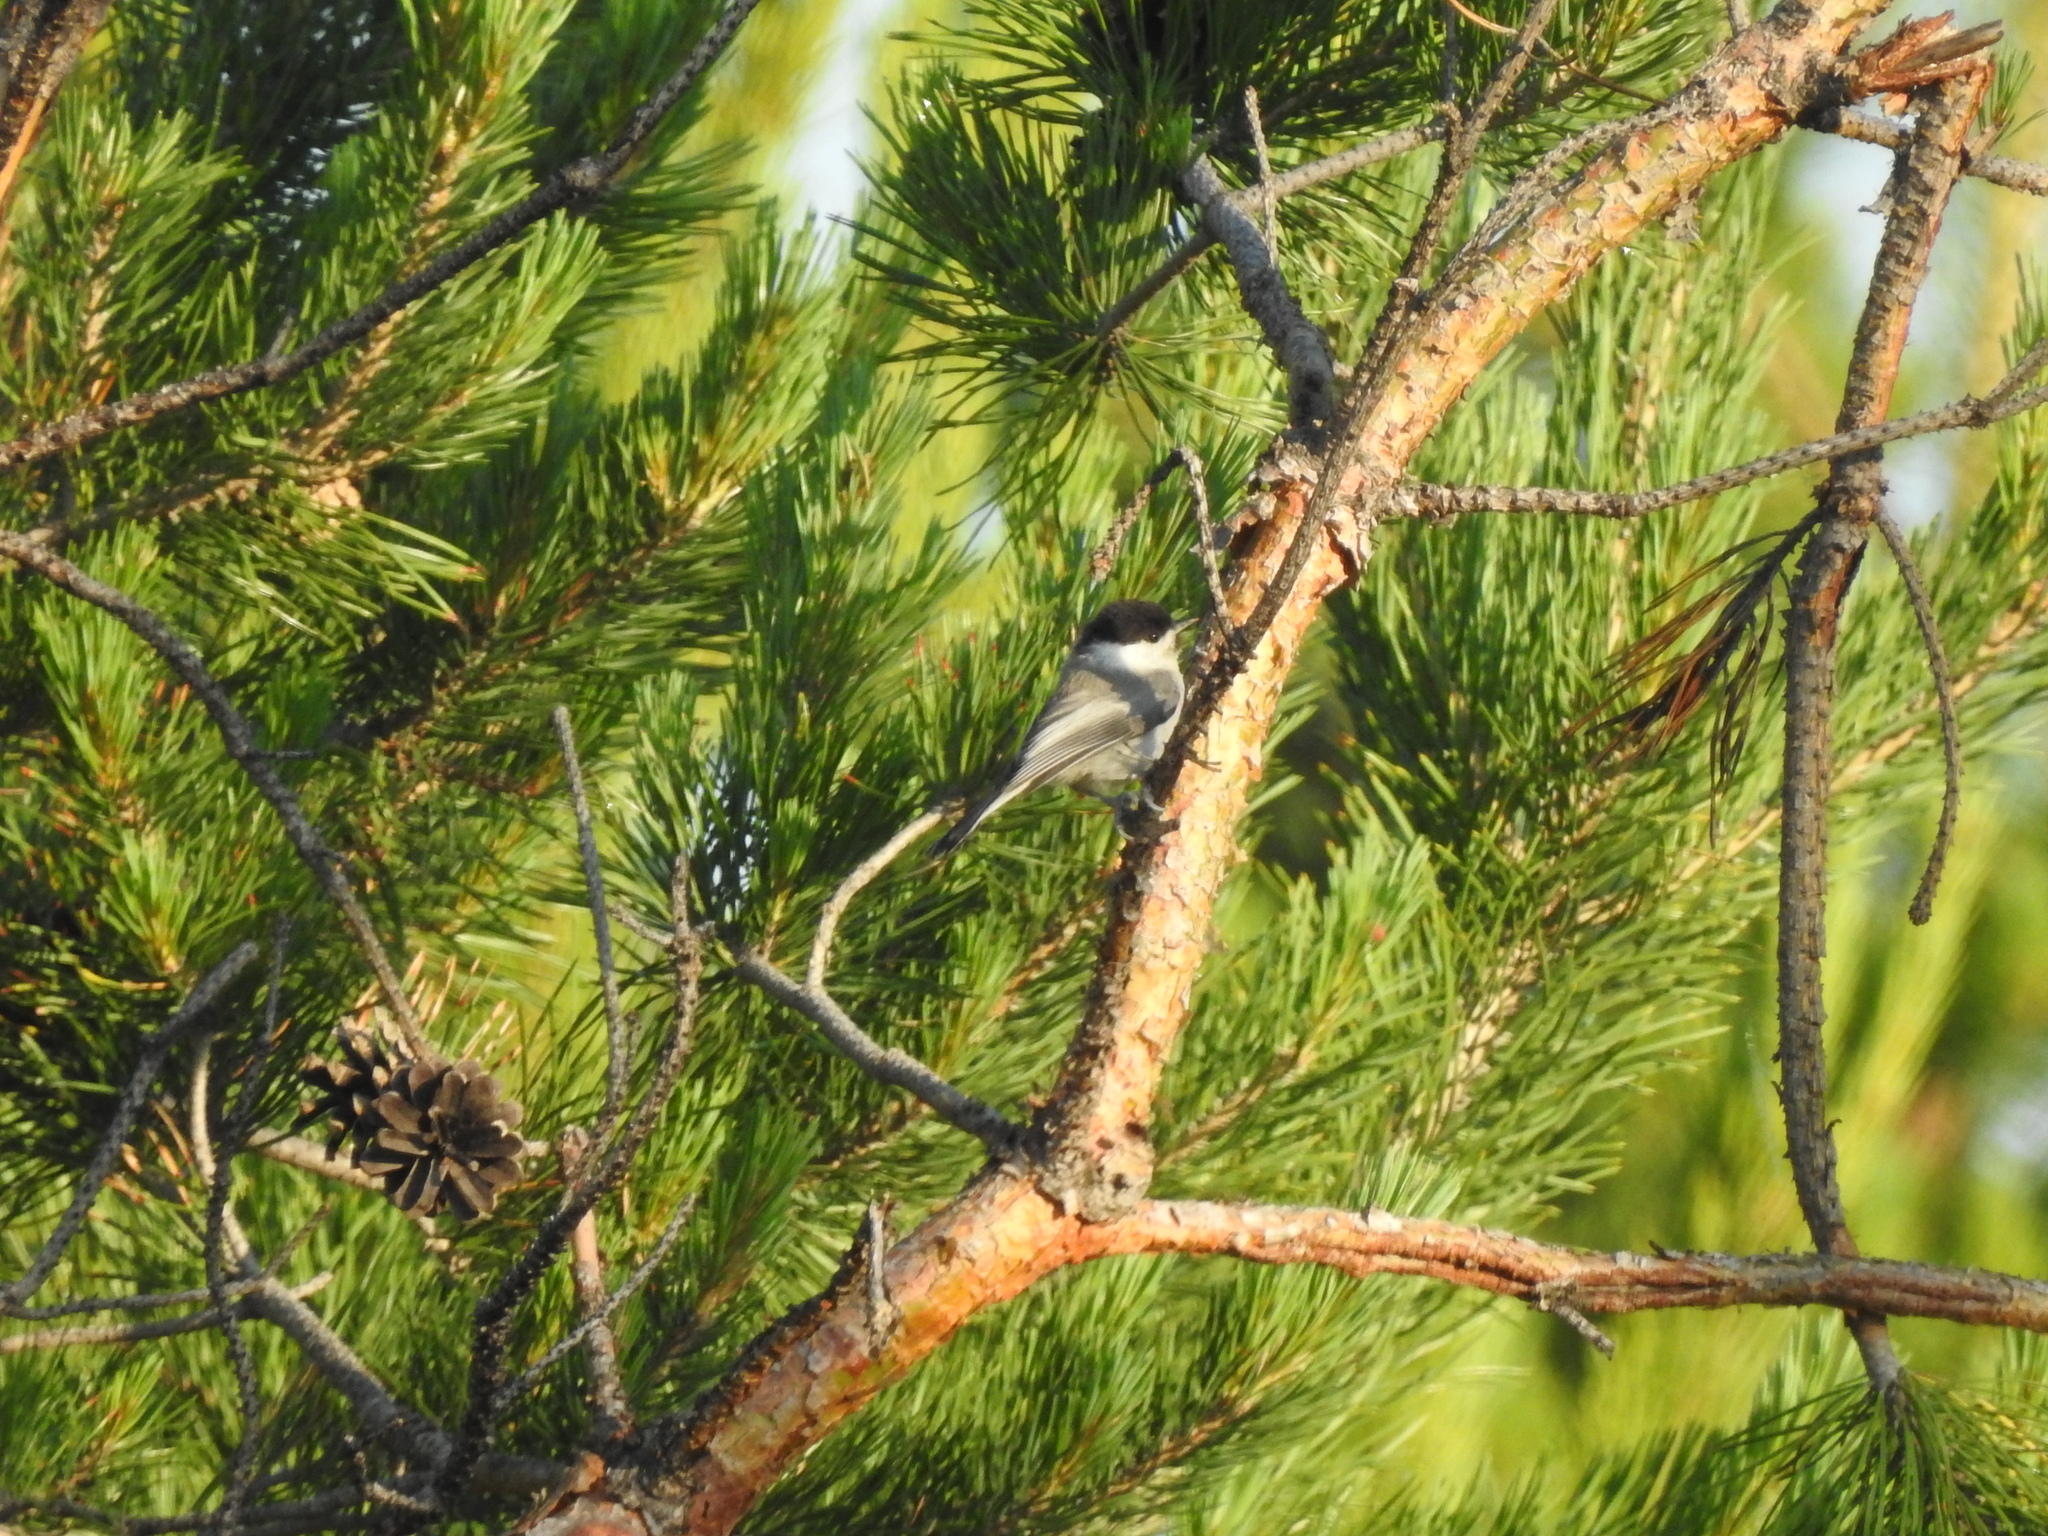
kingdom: Animalia
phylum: Chordata
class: Aves
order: Passeriformes
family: Paridae
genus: Poecile
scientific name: Poecile montanus
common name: Willow tit
